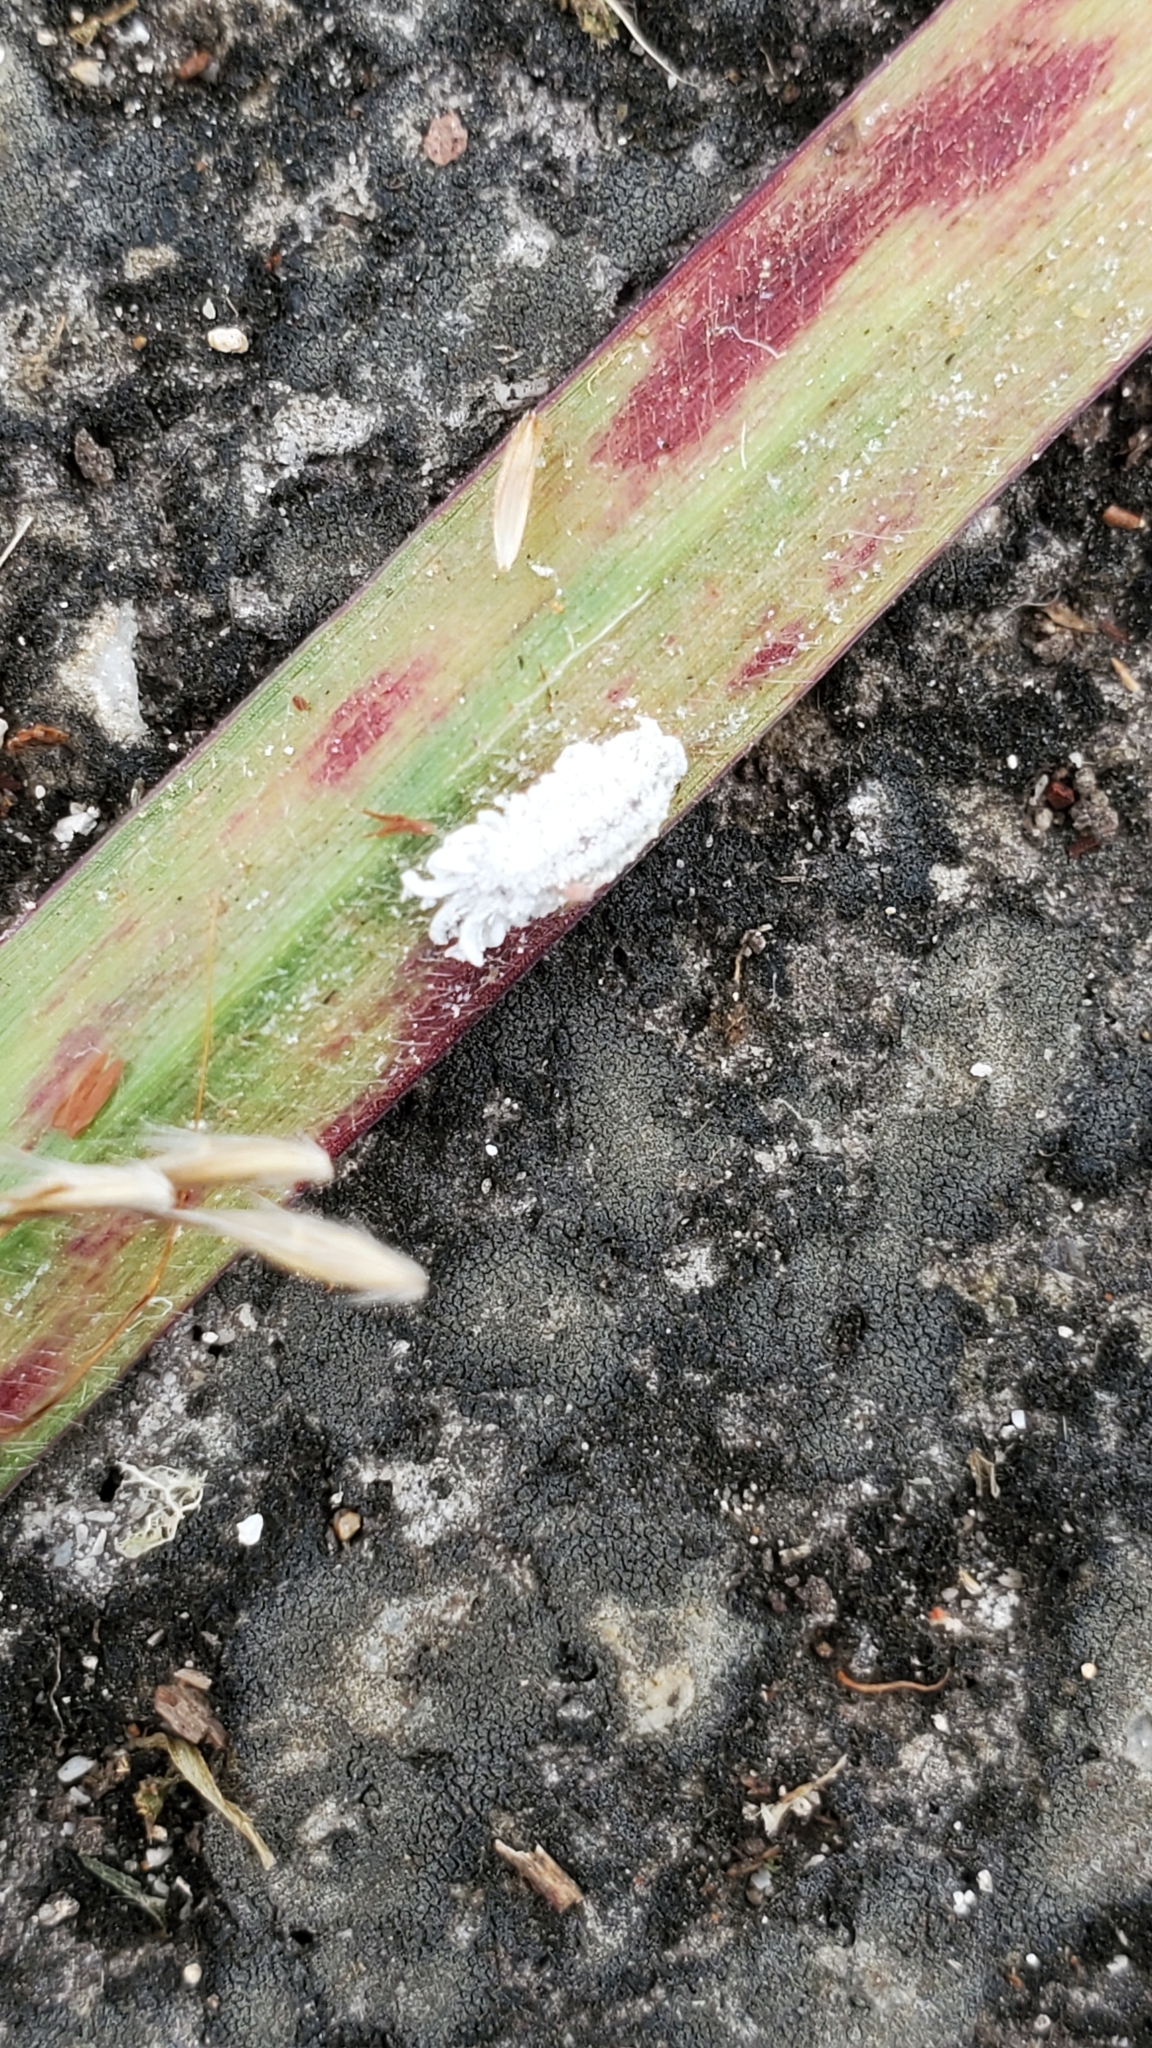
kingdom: Animalia
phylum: Arthropoda
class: Insecta
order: Hemiptera
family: Margarodidae
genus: Icerya
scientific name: Icerya imperatae
